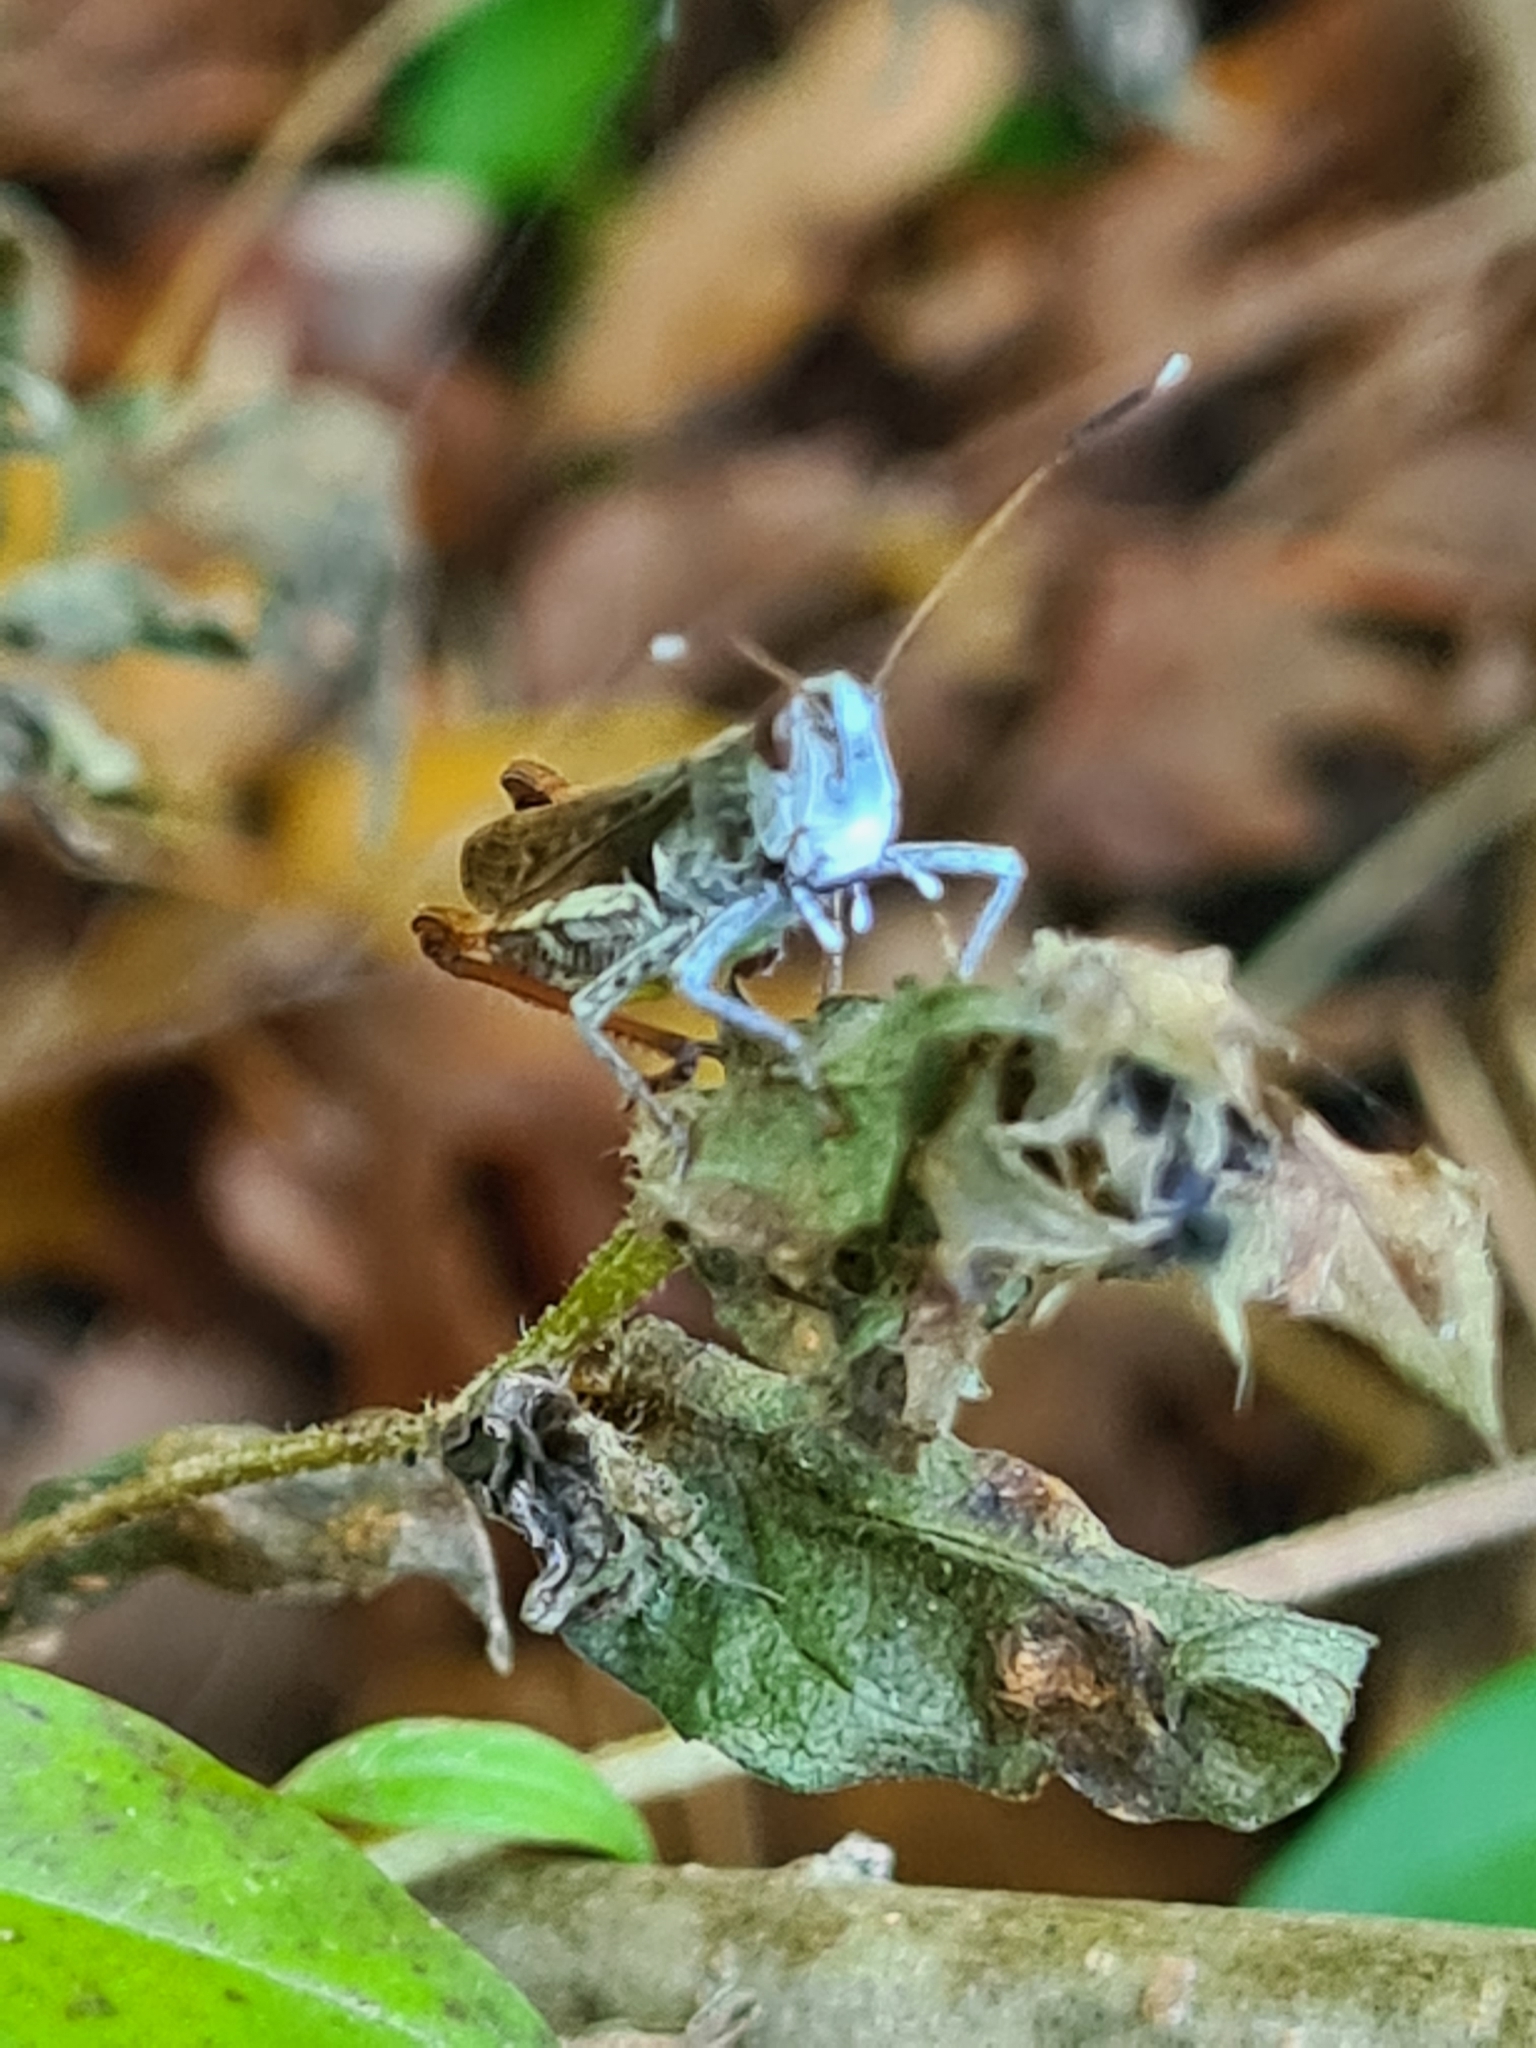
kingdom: Animalia
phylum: Arthropoda
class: Insecta
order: Orthoptera
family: Acrididae
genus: Gomphocerippus
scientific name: Gomphocerippus rufus
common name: Rufous grasshopper
